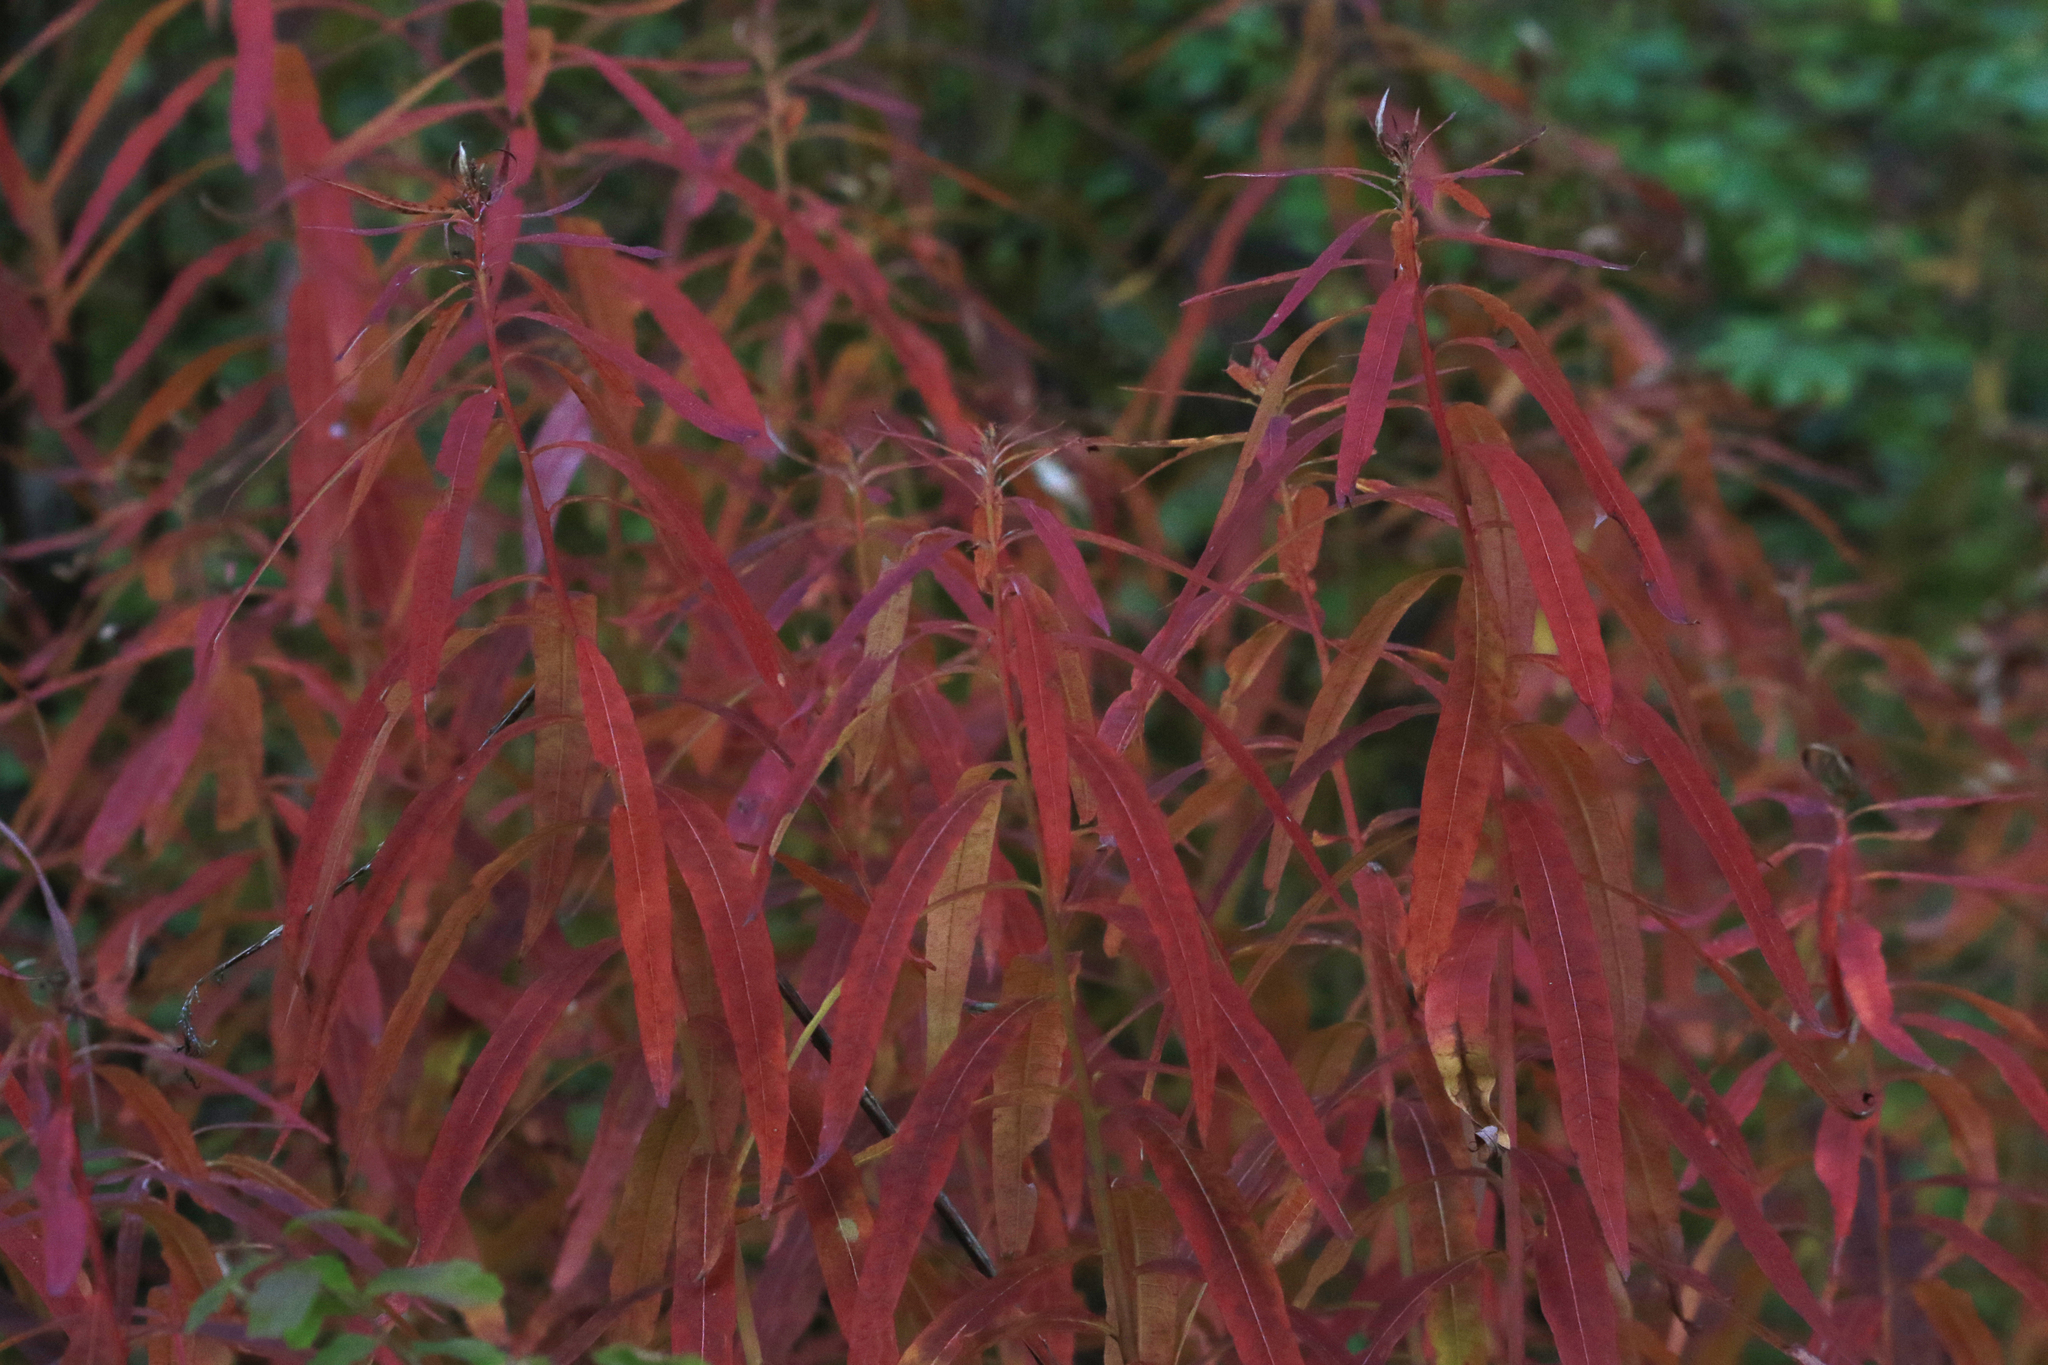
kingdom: Plantae
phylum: Tracheophyta
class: Magnoliopsida
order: Myrtales
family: Onagraceae
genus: Chamaenerion
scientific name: Chamaenerion angustifolium
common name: Fireweed
